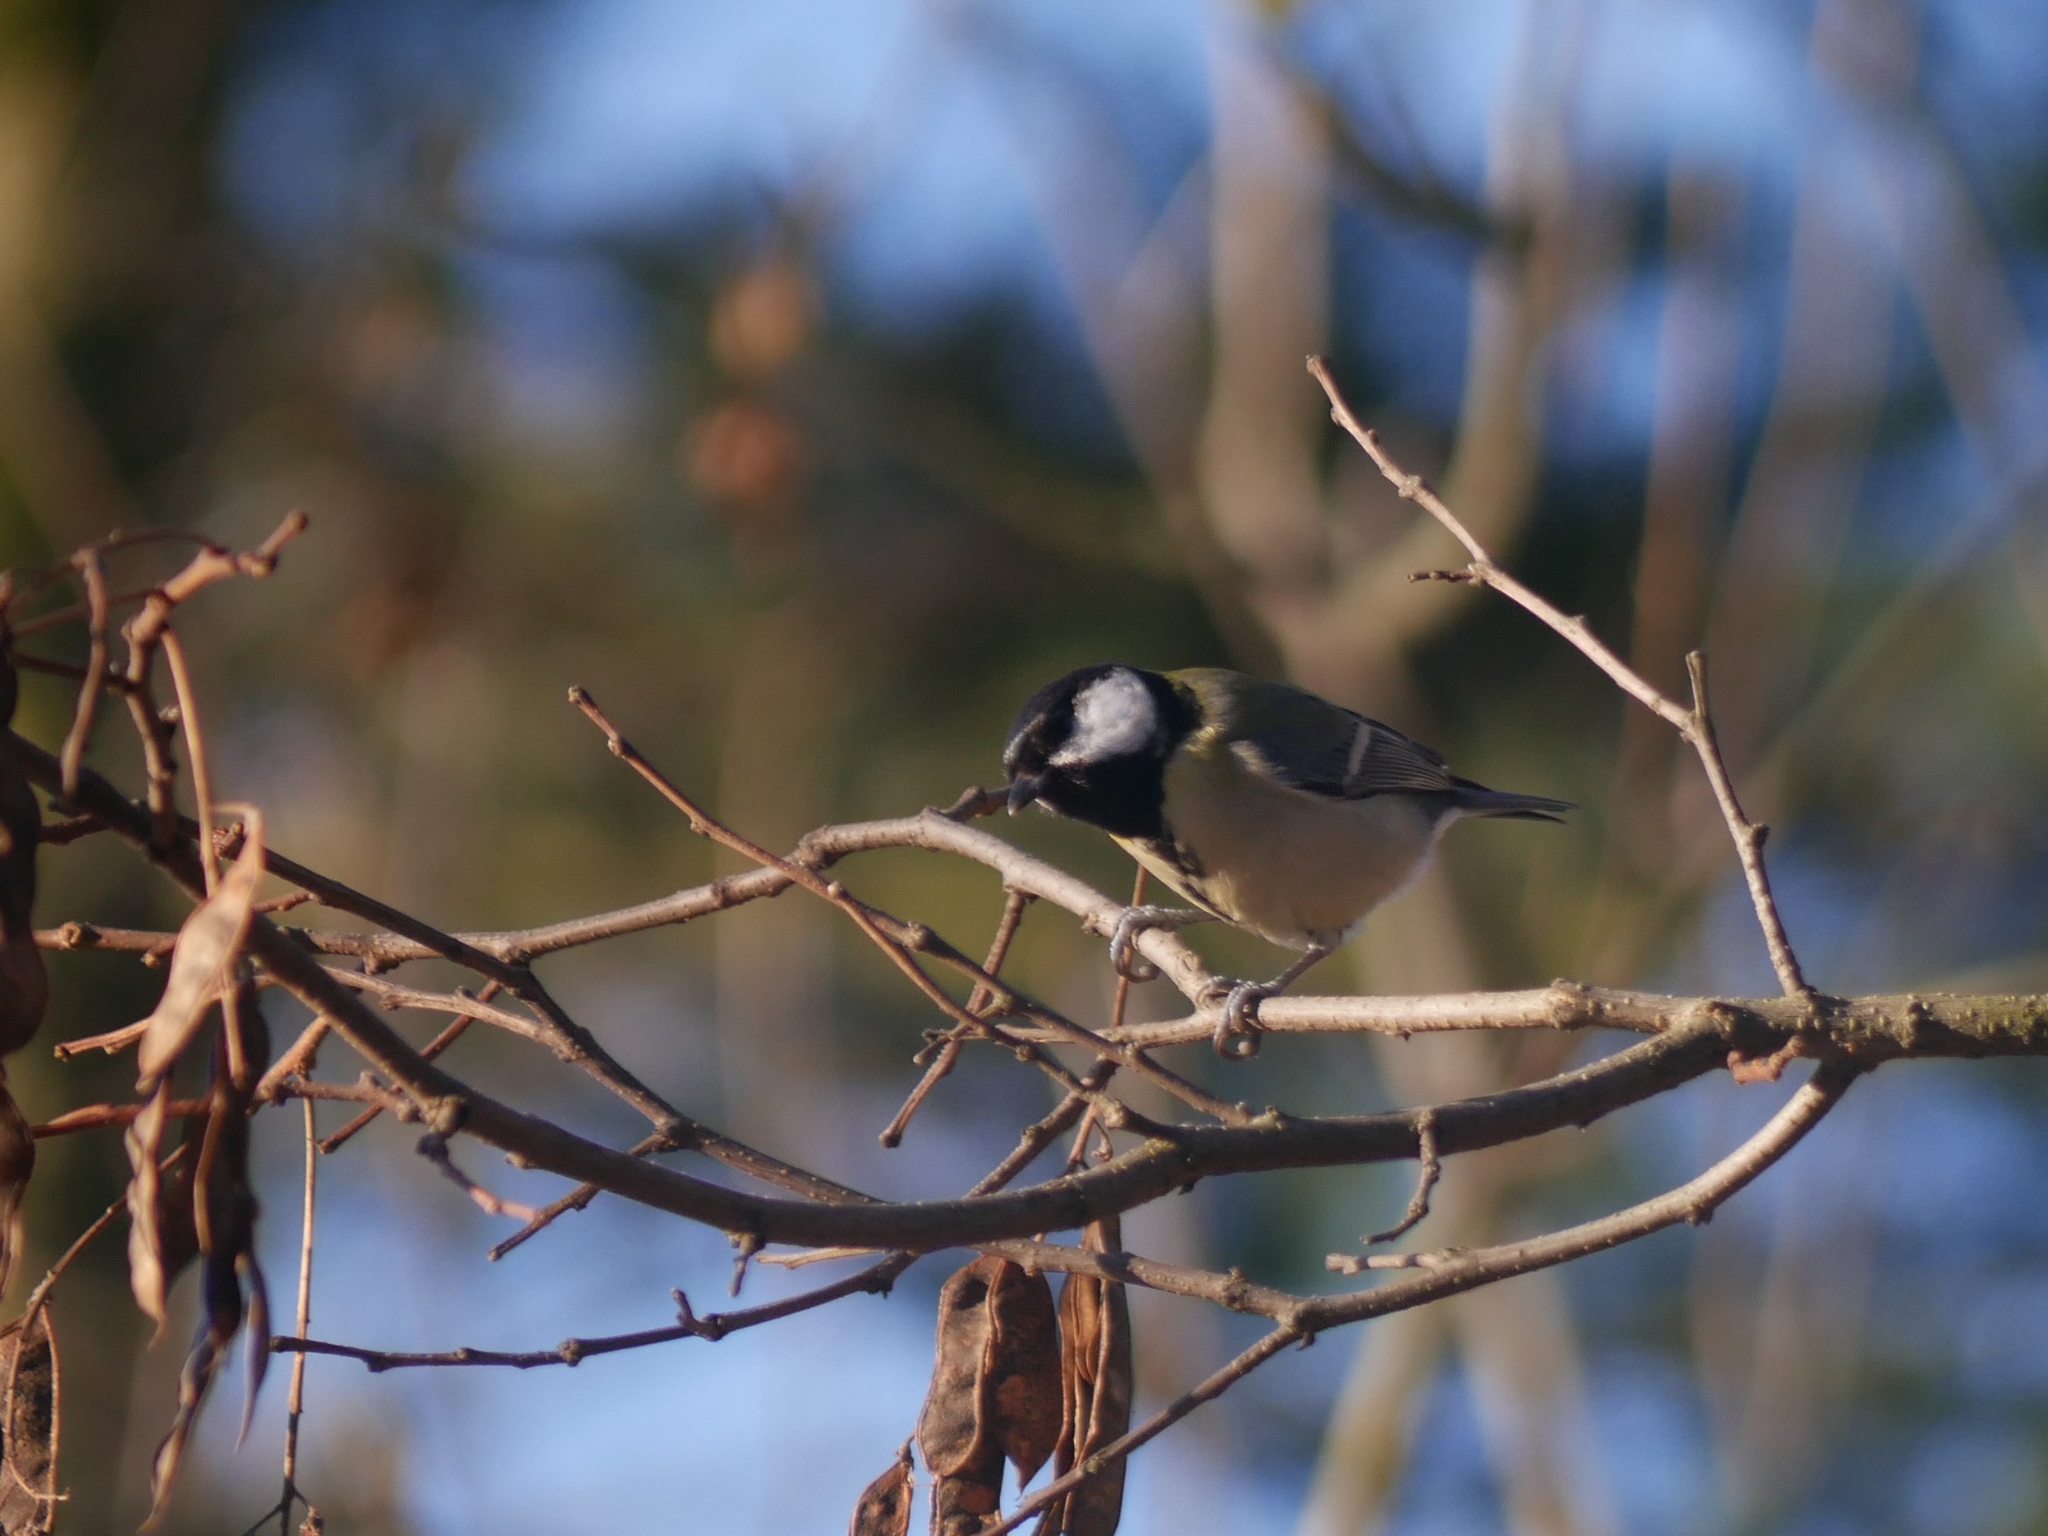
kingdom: Animalia
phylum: Chordata
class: Aves
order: Passeriformes
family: Paridae
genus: Parus
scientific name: Parus major
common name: Great tit
